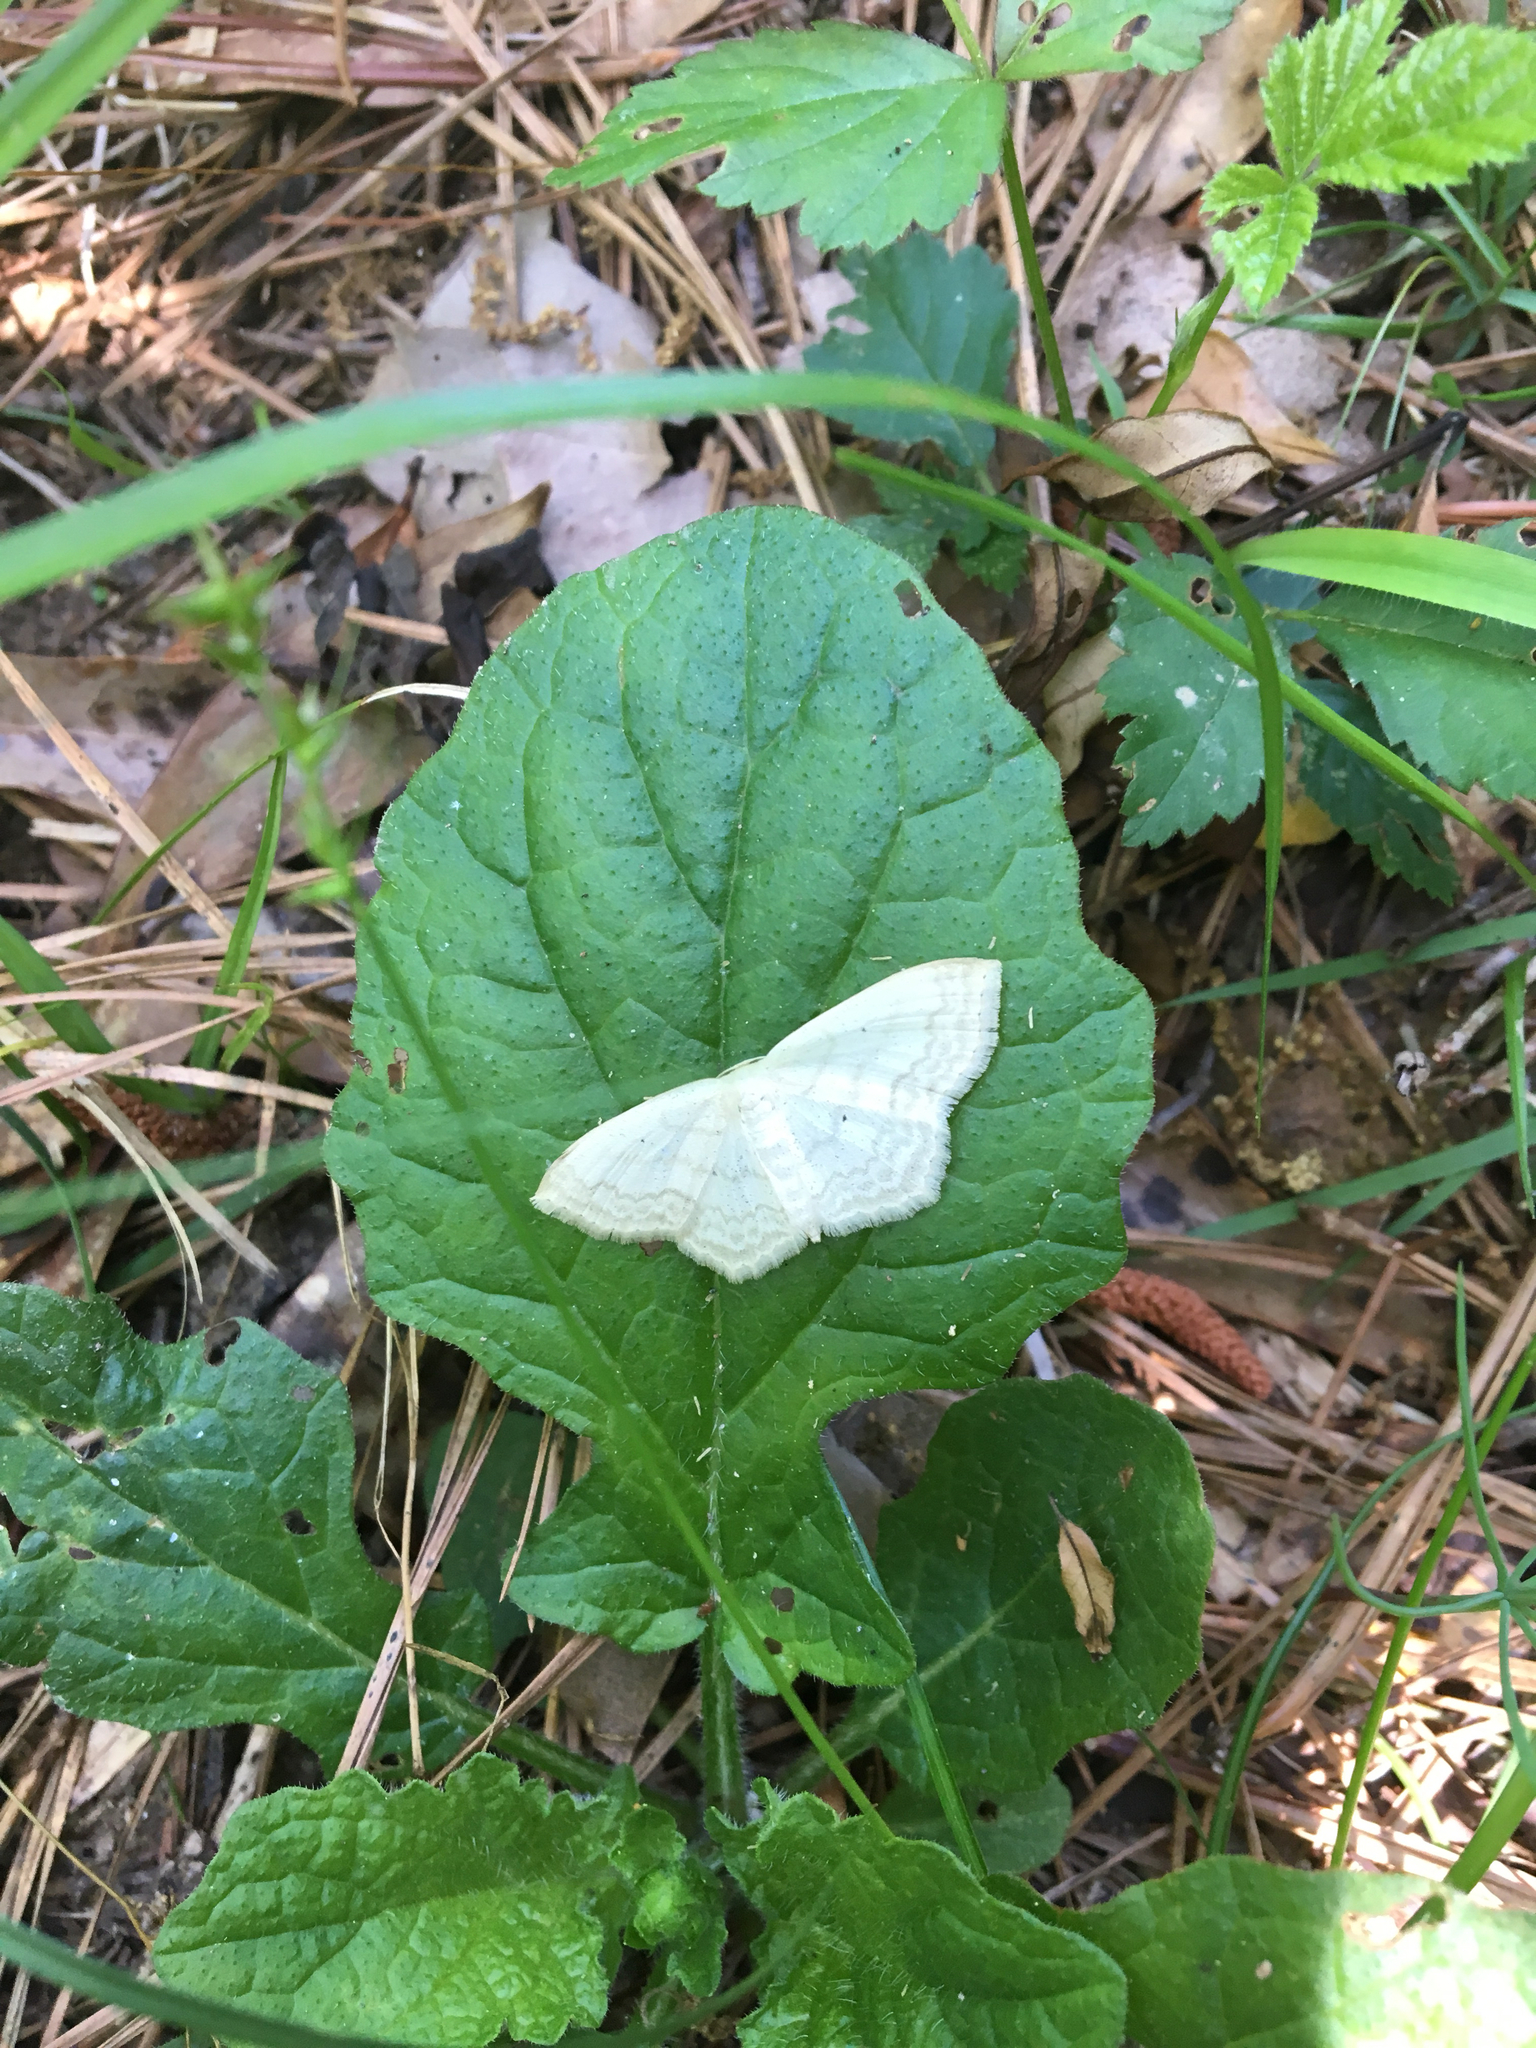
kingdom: Animalia
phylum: Arthropoda
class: Insecta
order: Lepidoptera
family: Geometridae
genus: Scopula
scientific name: Scopula limboundata
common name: Large lace border
